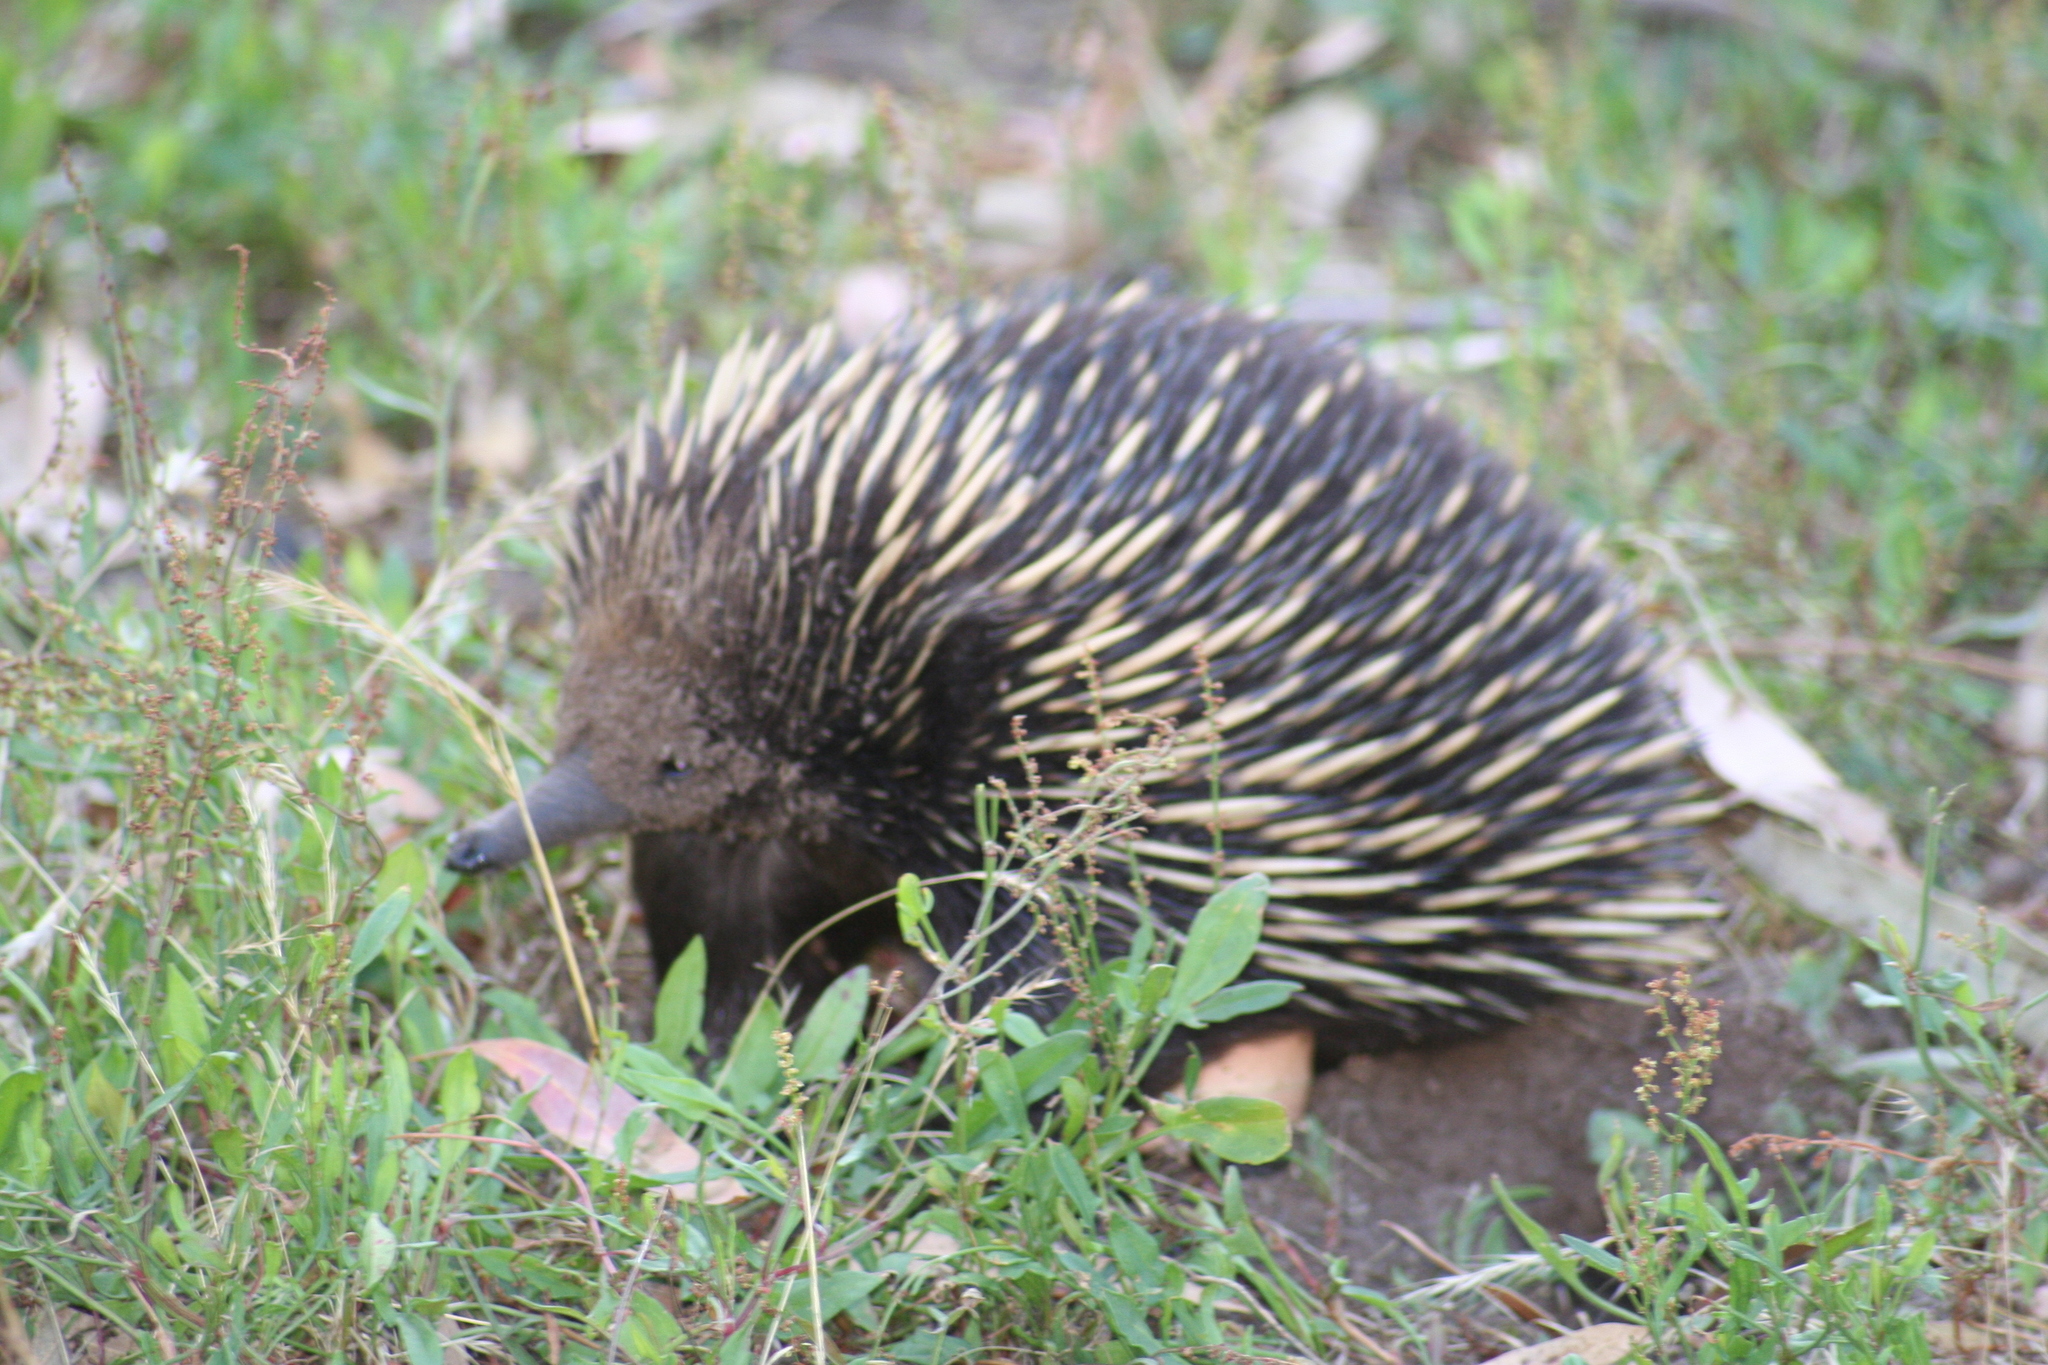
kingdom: Animalia
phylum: Chordata
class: Mammalia
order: Monotremata
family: Tachyglossidae
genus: Tachyglossus
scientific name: Tachyglossus aculeatus
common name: Short-beaked echidna
